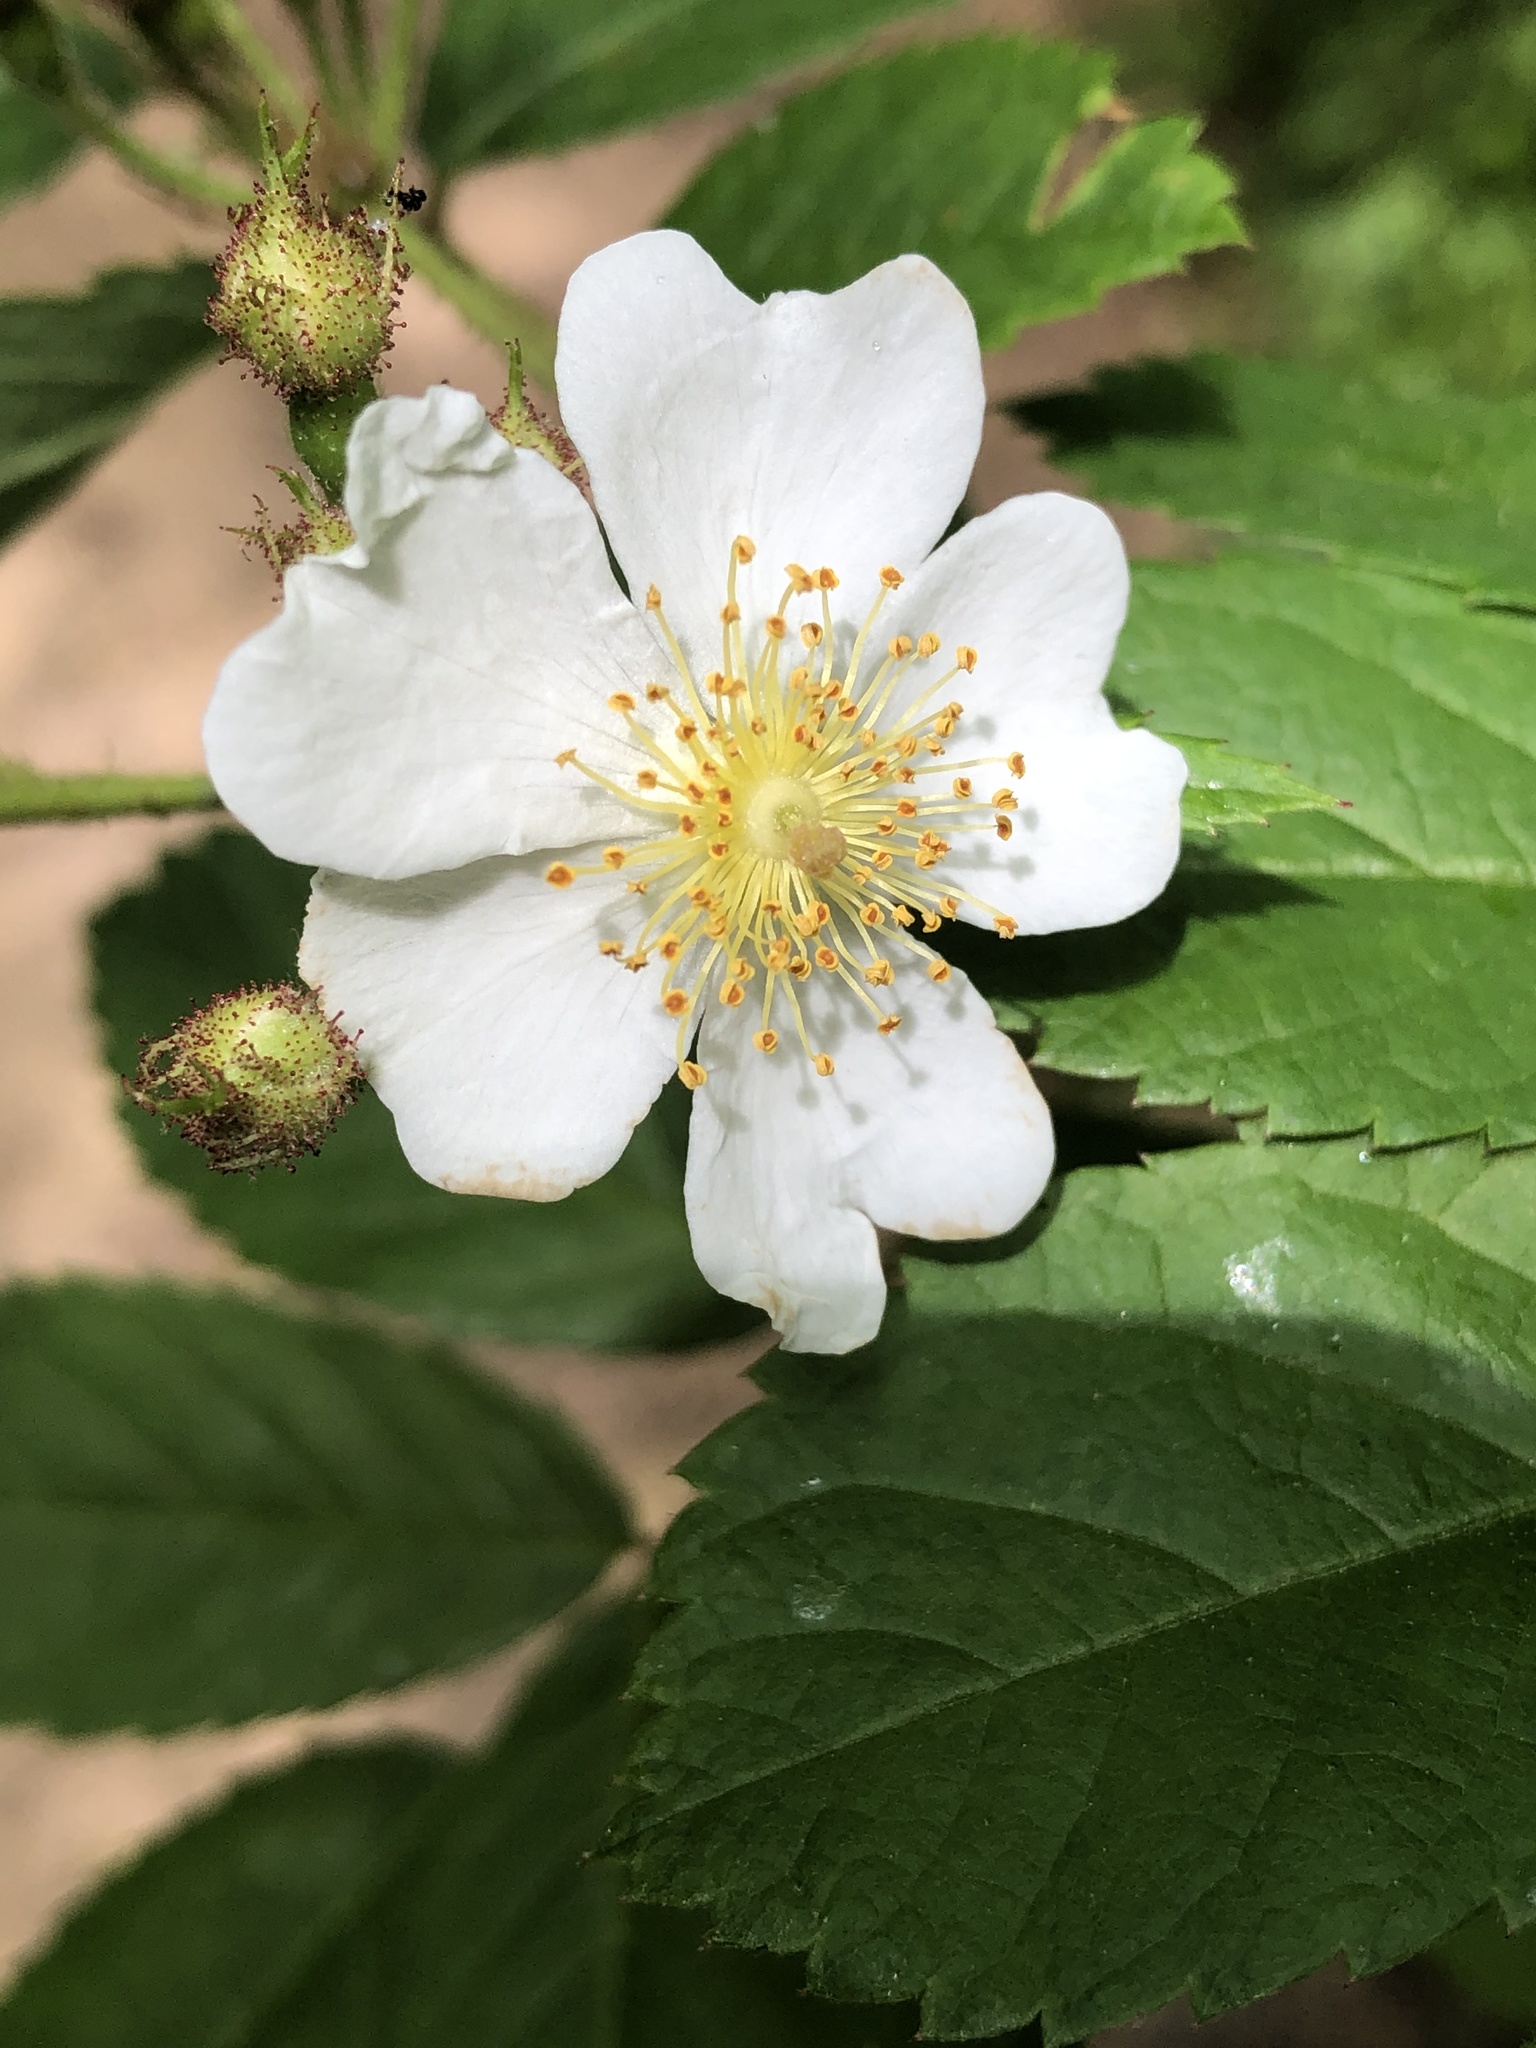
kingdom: Plantae
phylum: Tracheophyta
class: Magnoliopsida
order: Rosales
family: Rosaceae
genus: Rosa
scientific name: Rosa multiflora
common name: Multiflora rose
